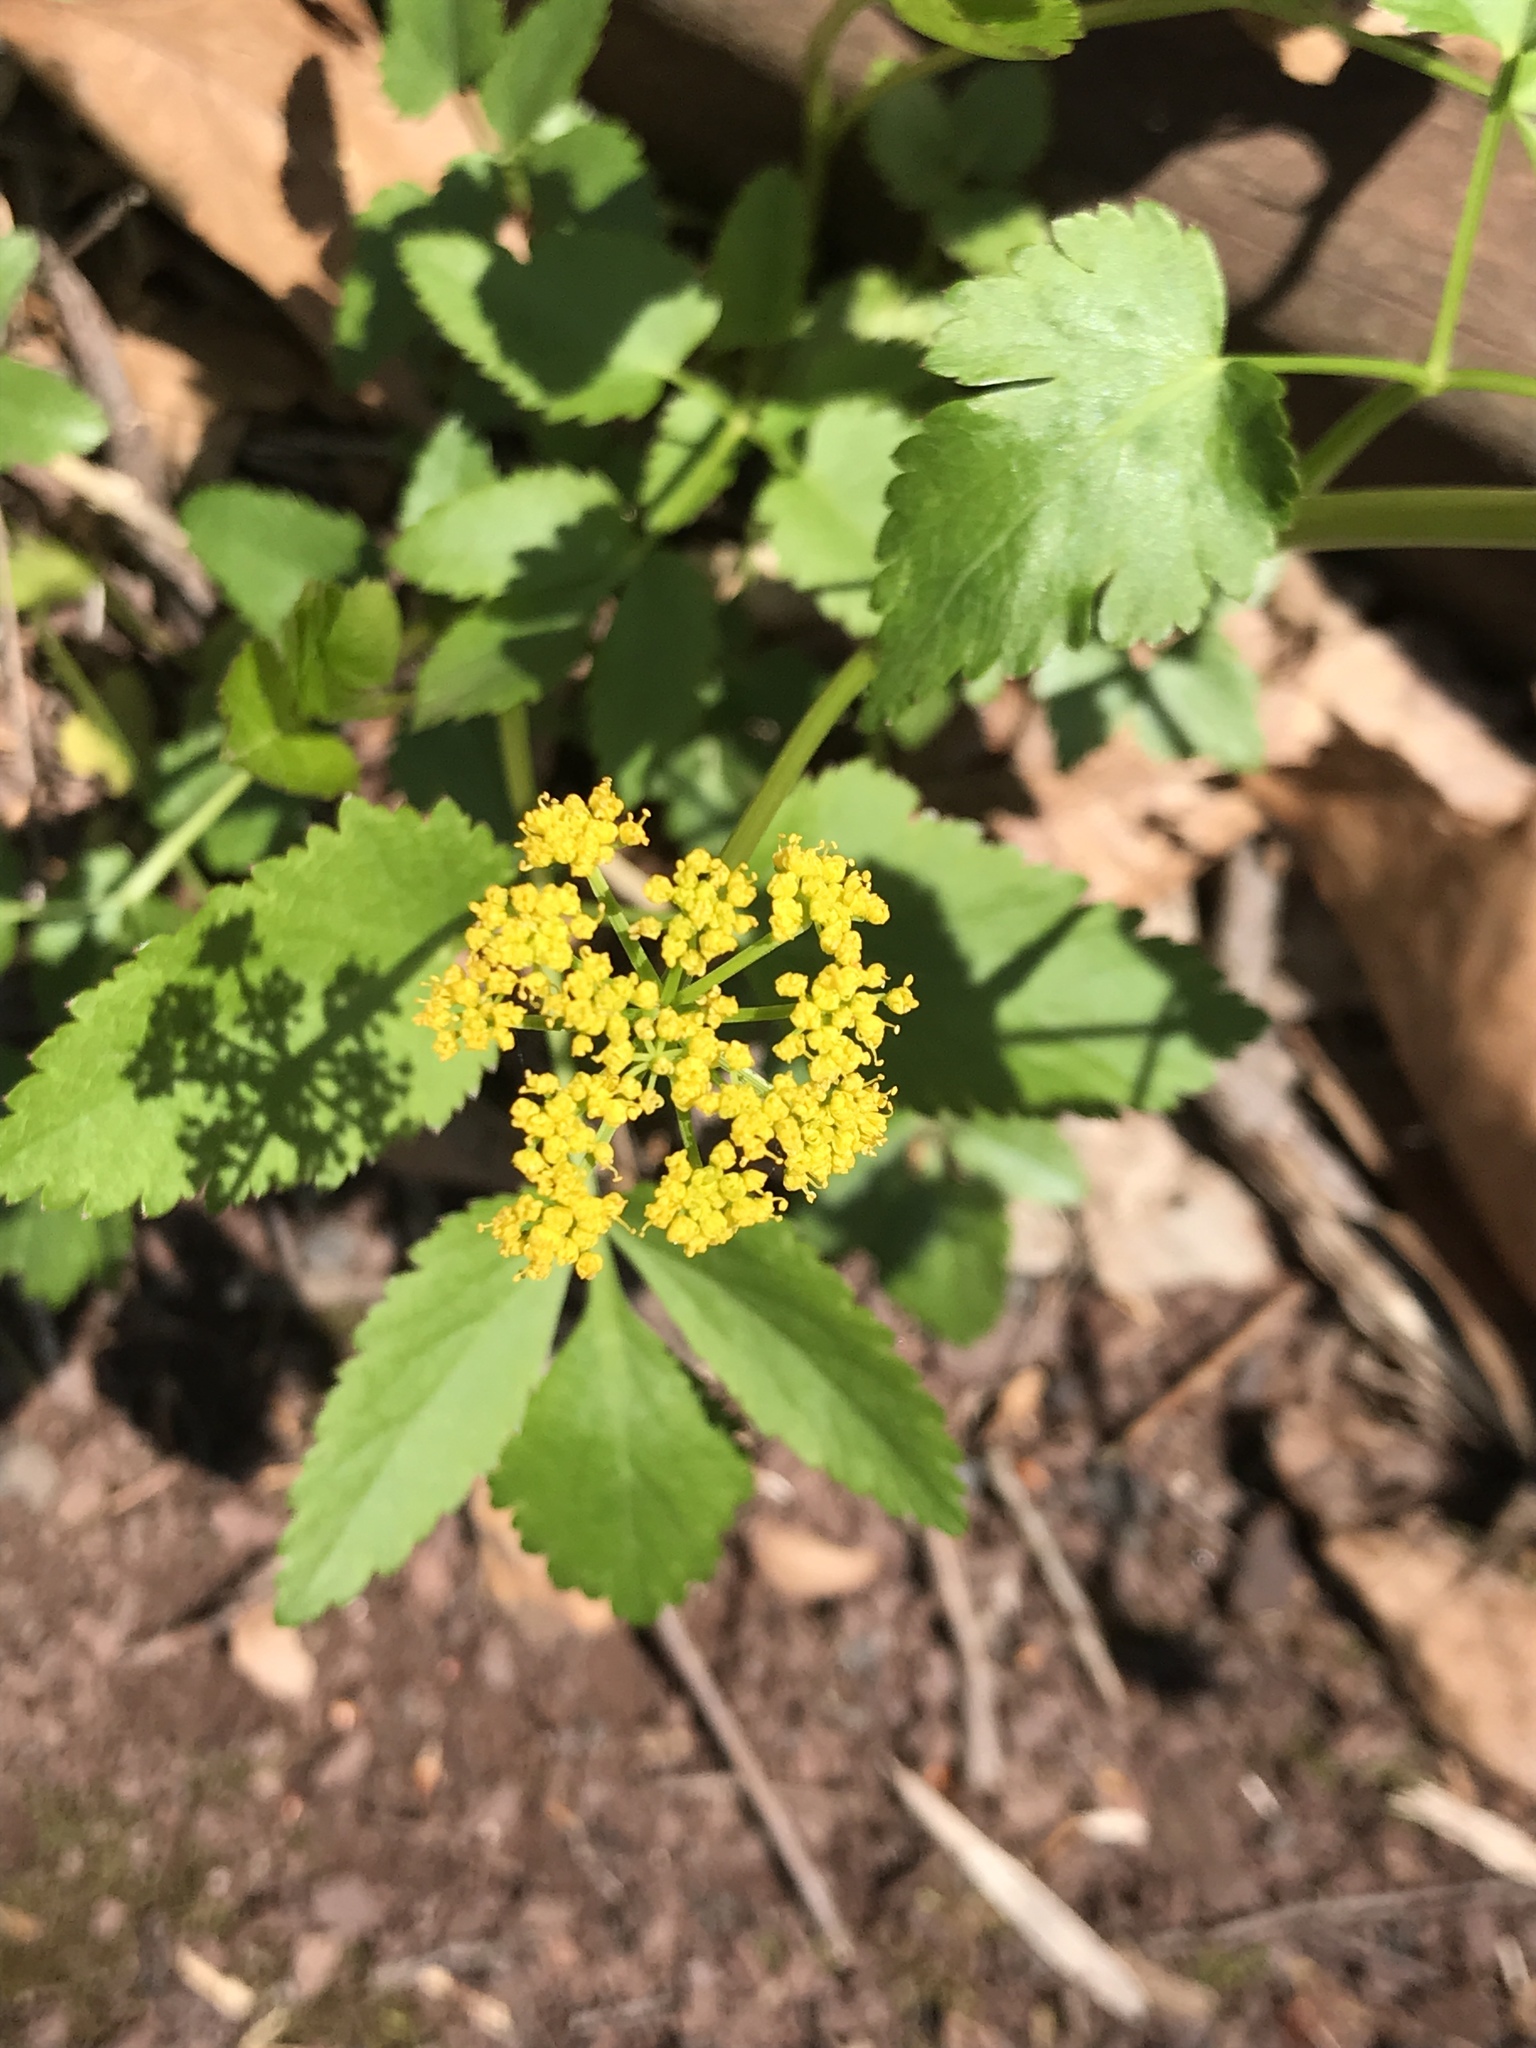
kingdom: Plantae
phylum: Tracheophyta
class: Magnoliopsida
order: Apiales
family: Apiaceae
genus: Zizia
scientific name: Zizia aurea
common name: Golden alexanders
